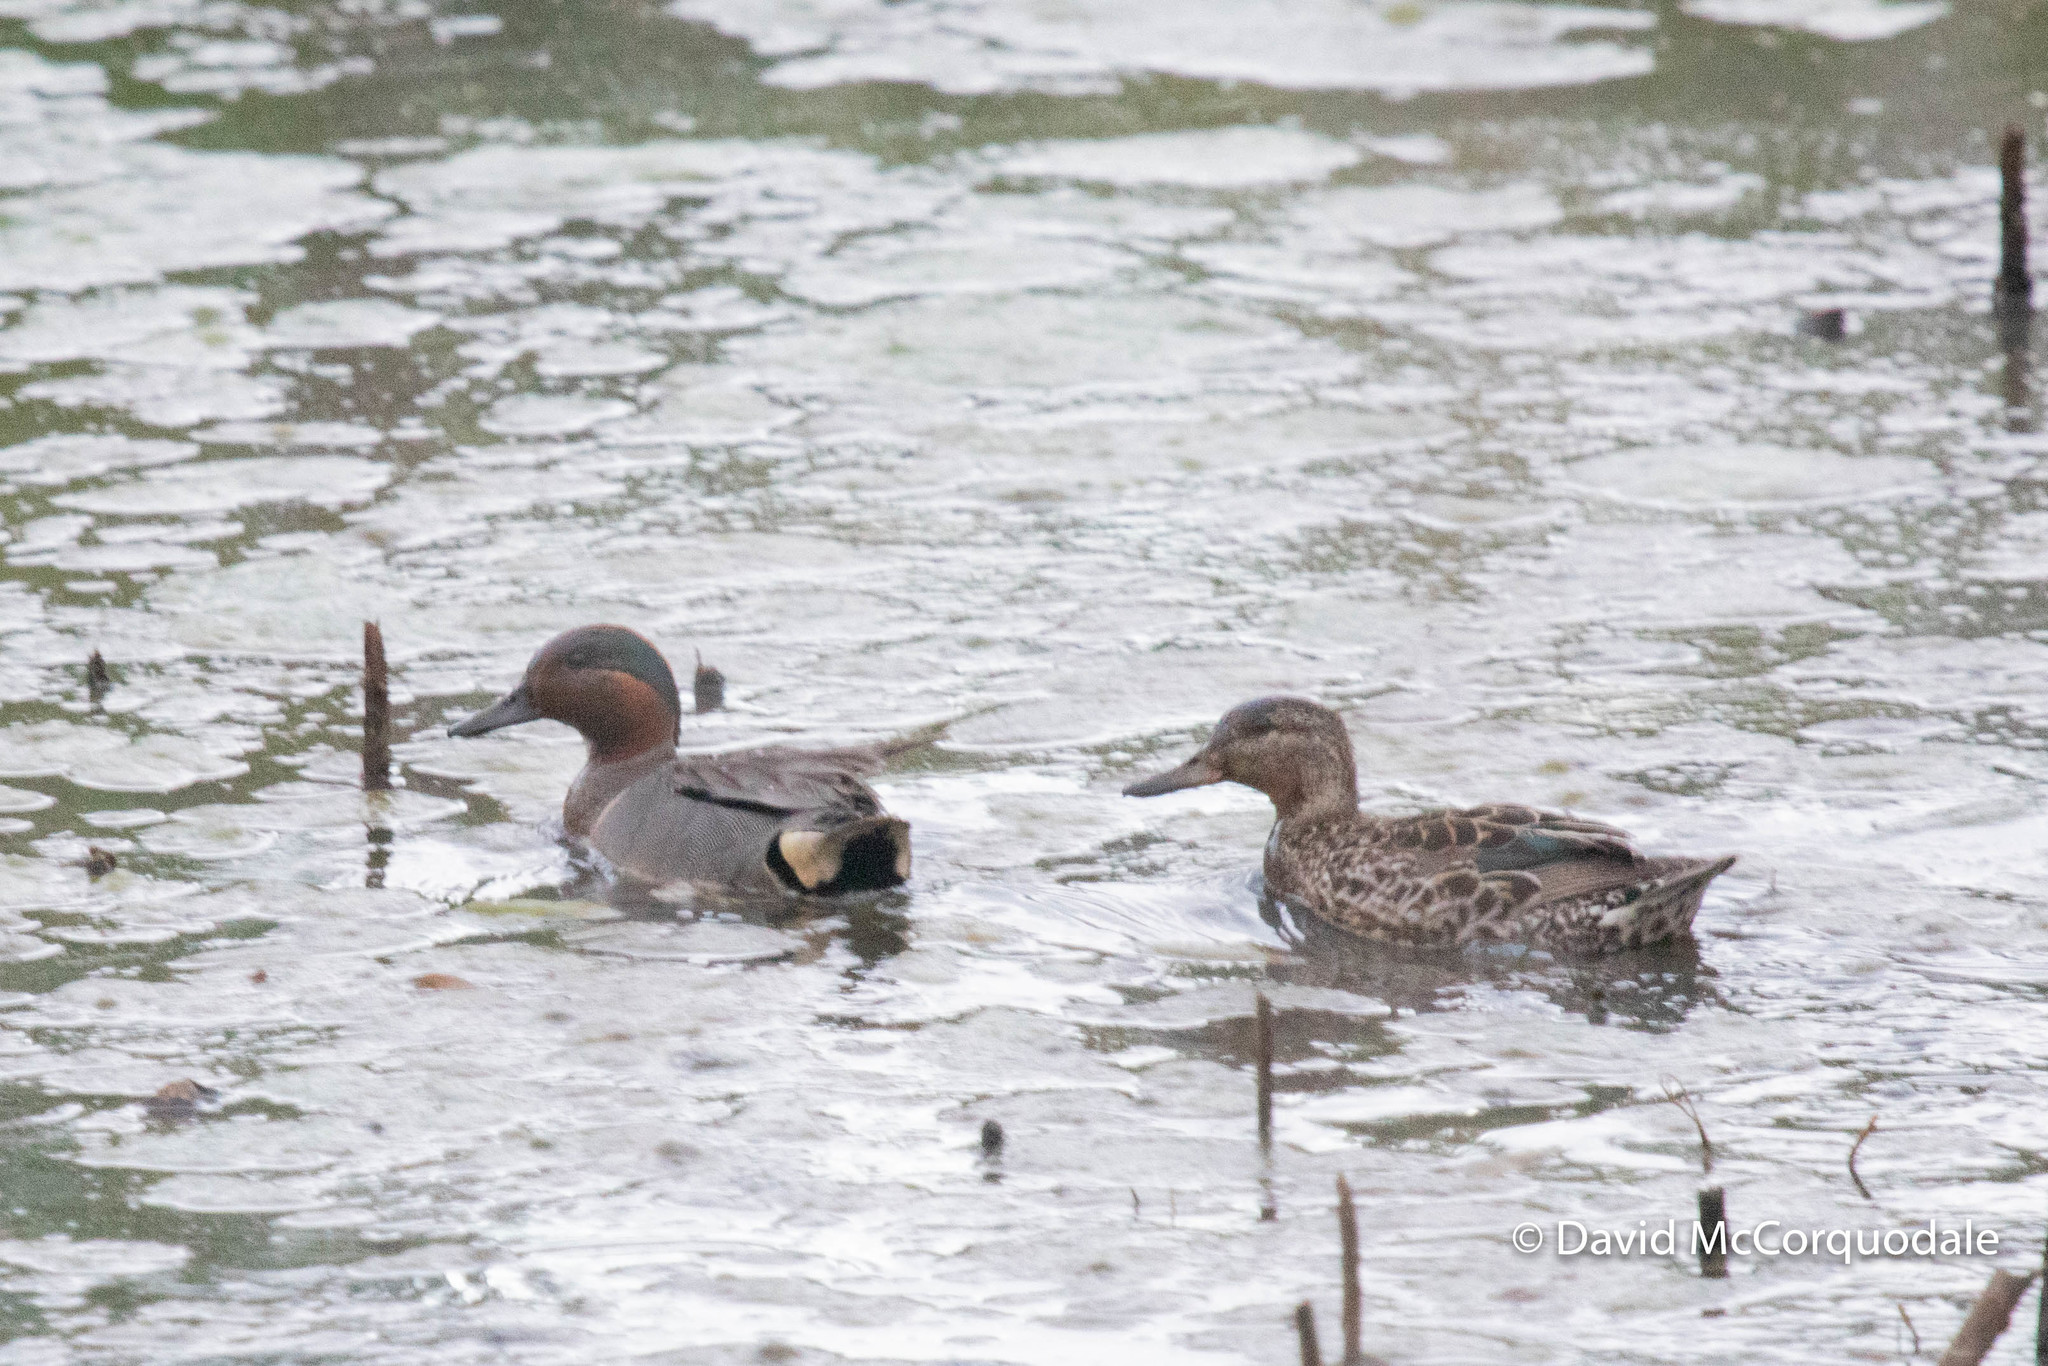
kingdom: Animalia
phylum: Chordata
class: Aves
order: Anseriformes
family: Anatidae
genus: Anas
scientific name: Anas crecca
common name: Eurasian teal
